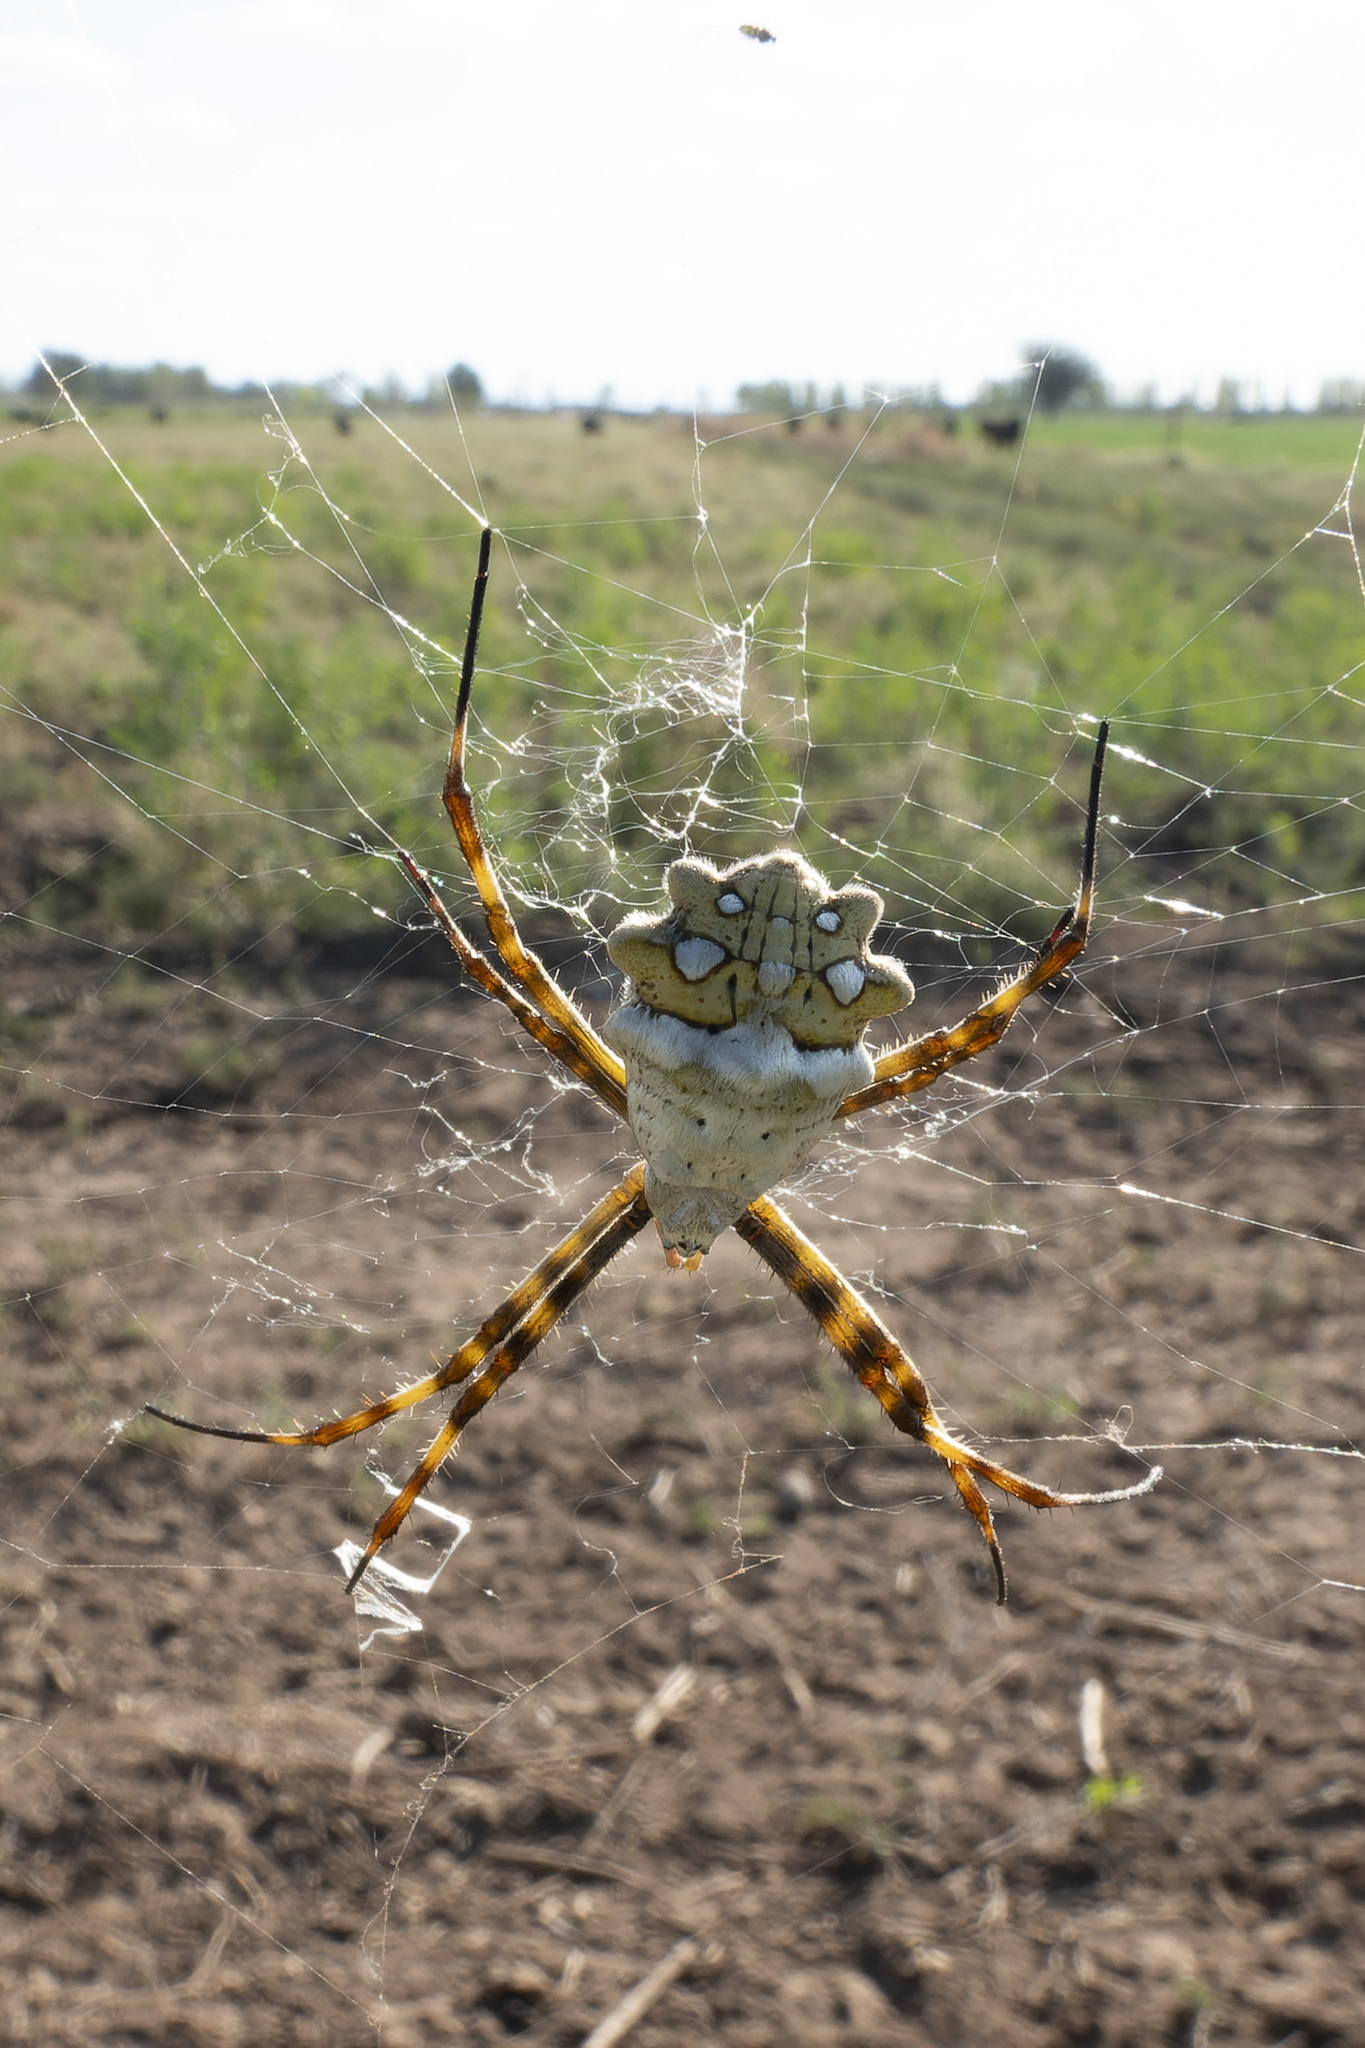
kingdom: Animalia
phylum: Arthropoda
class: Arachnida
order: Araneae
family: Araneidae
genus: Argiope
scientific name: Argiope argentata
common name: Orb weavers
